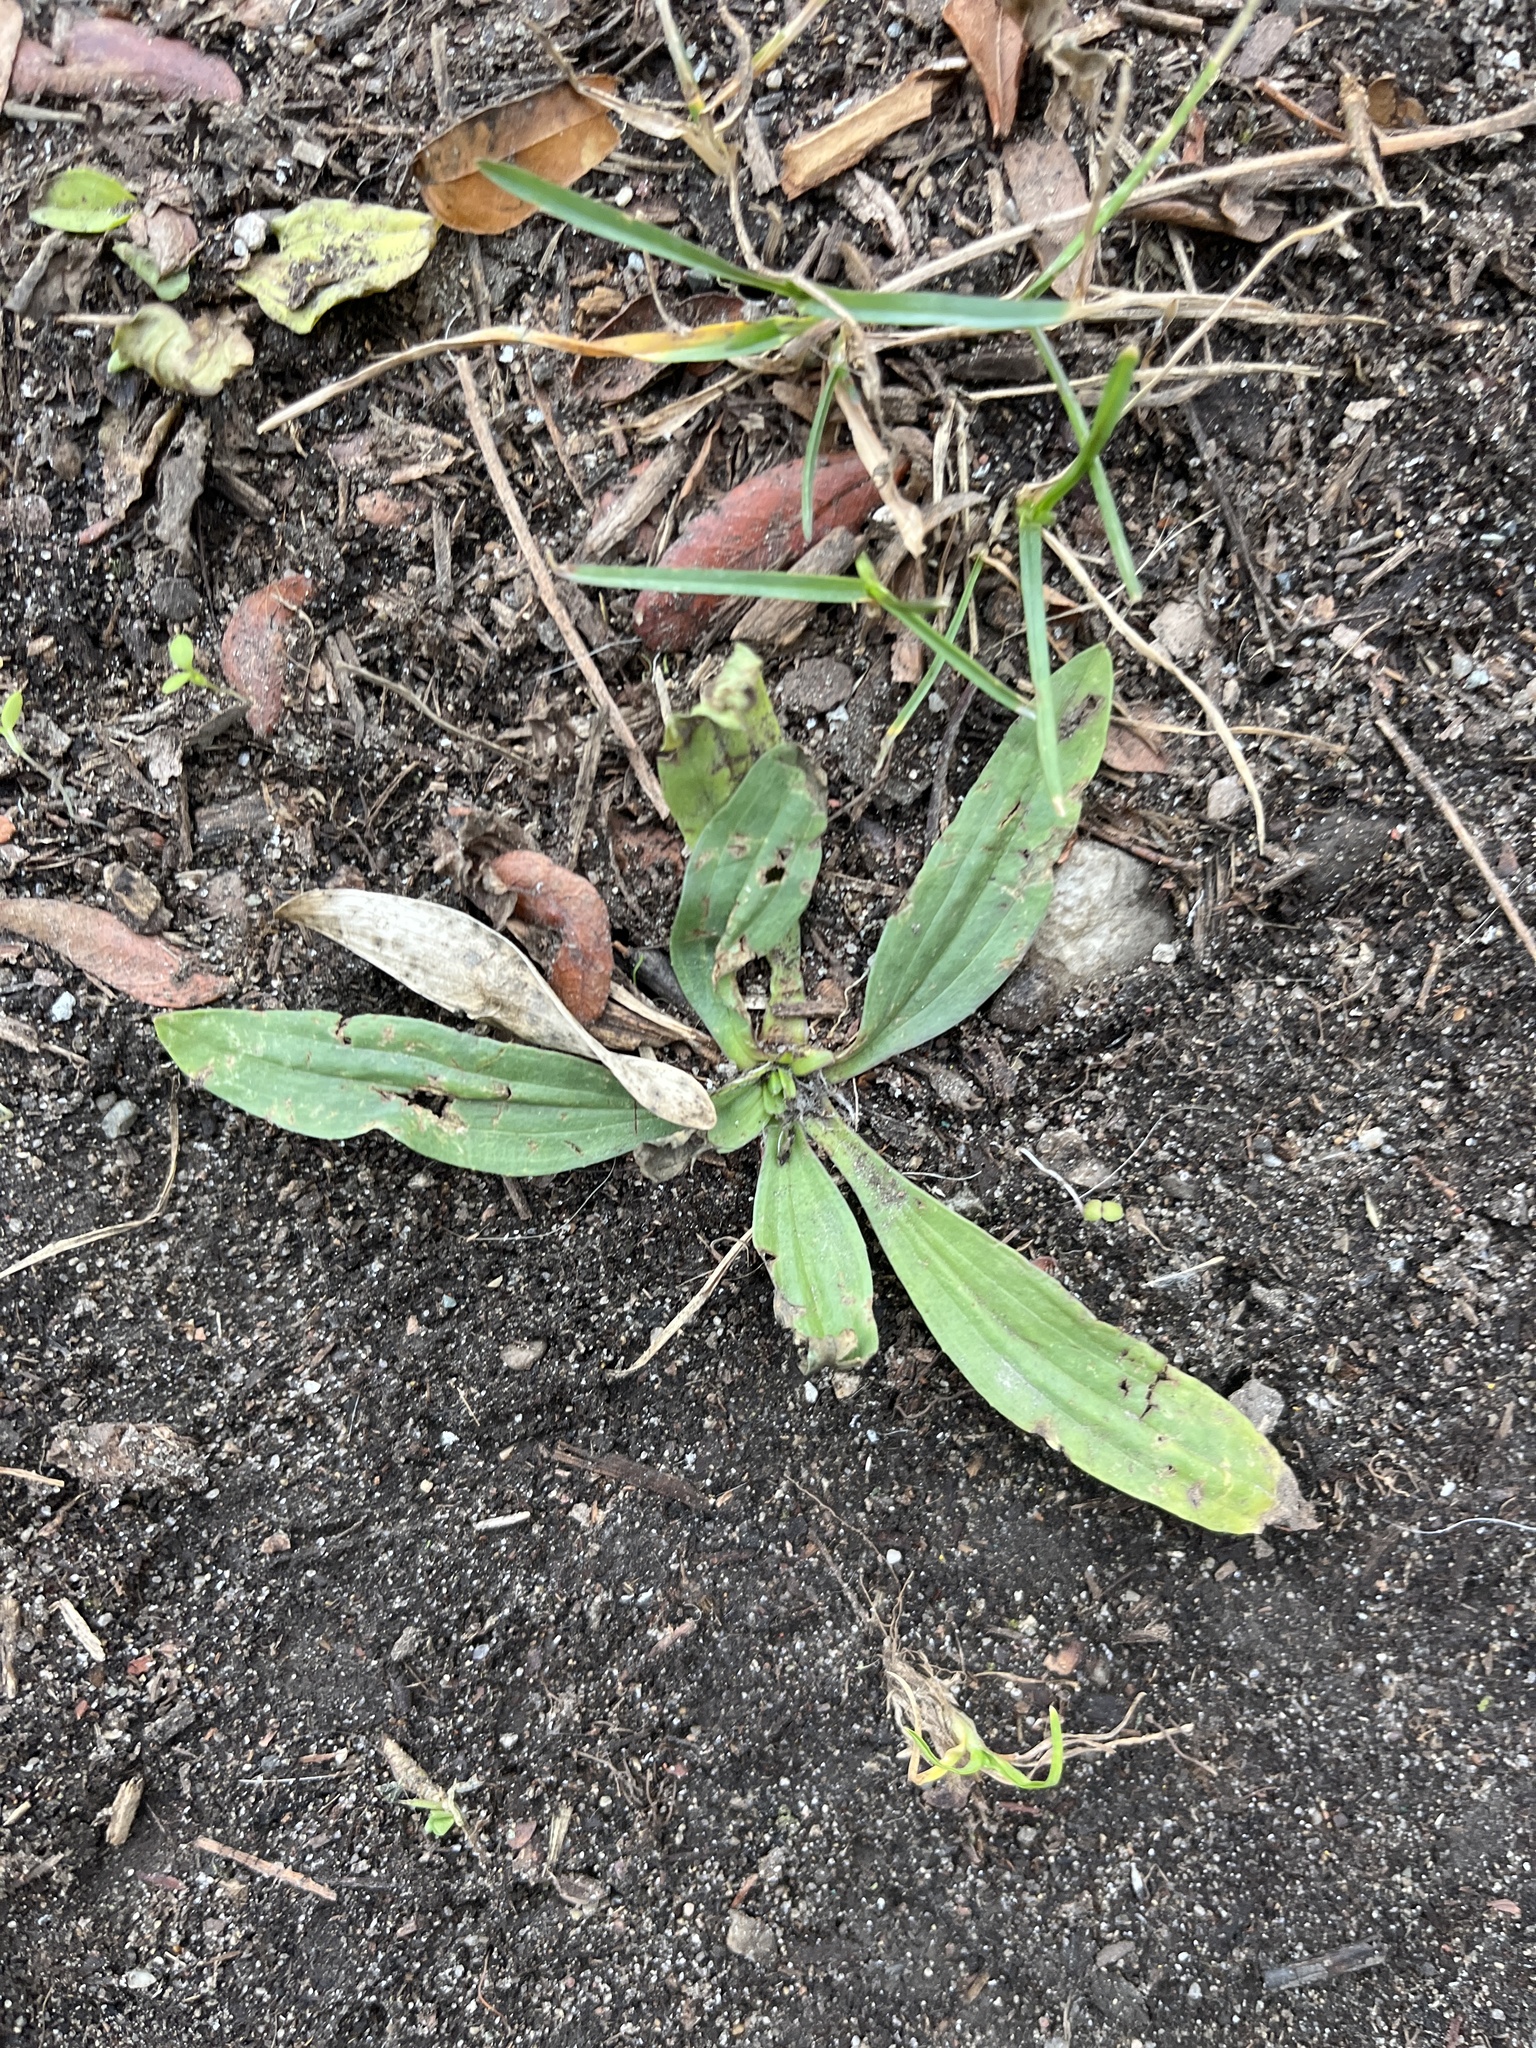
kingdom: Plantae
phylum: Tracheophyta
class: Magnoliopsida
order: Lamiales
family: Plantaginaceae
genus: Plantago
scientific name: Plantago lanceolata
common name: Ribwort plantain
